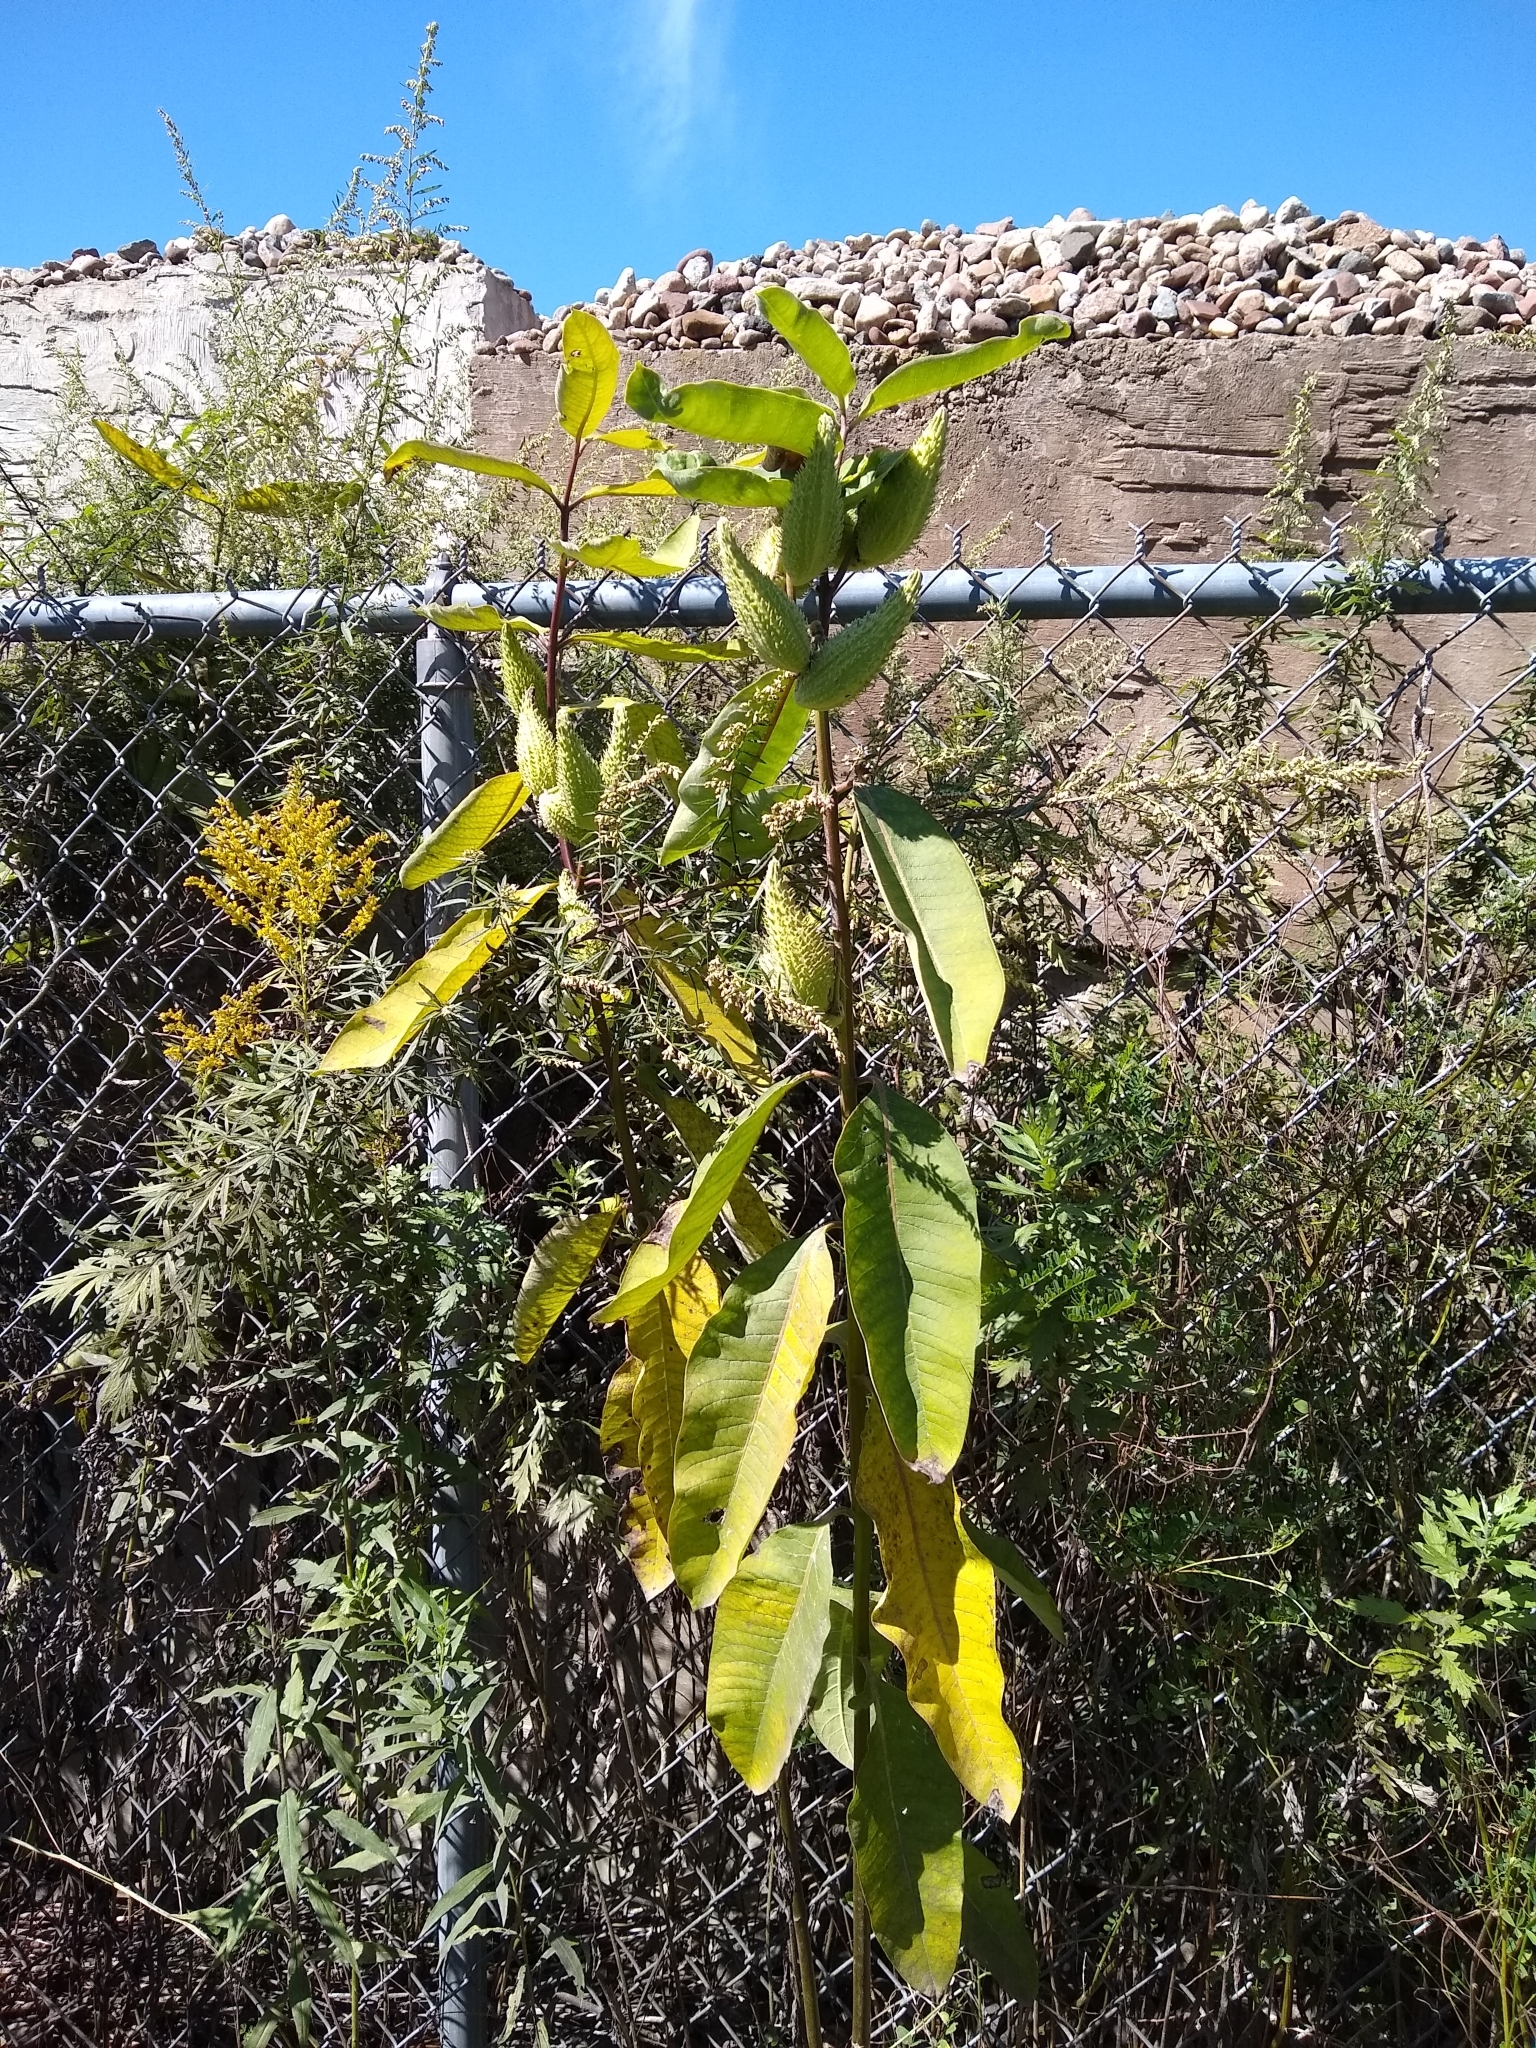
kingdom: Plantae
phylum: Tracheophyta
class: Magnoliopsida
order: Gentianales
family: Apocynaceae
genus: Asclepias
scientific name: Asclepias syriaca
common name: Common milkweed
